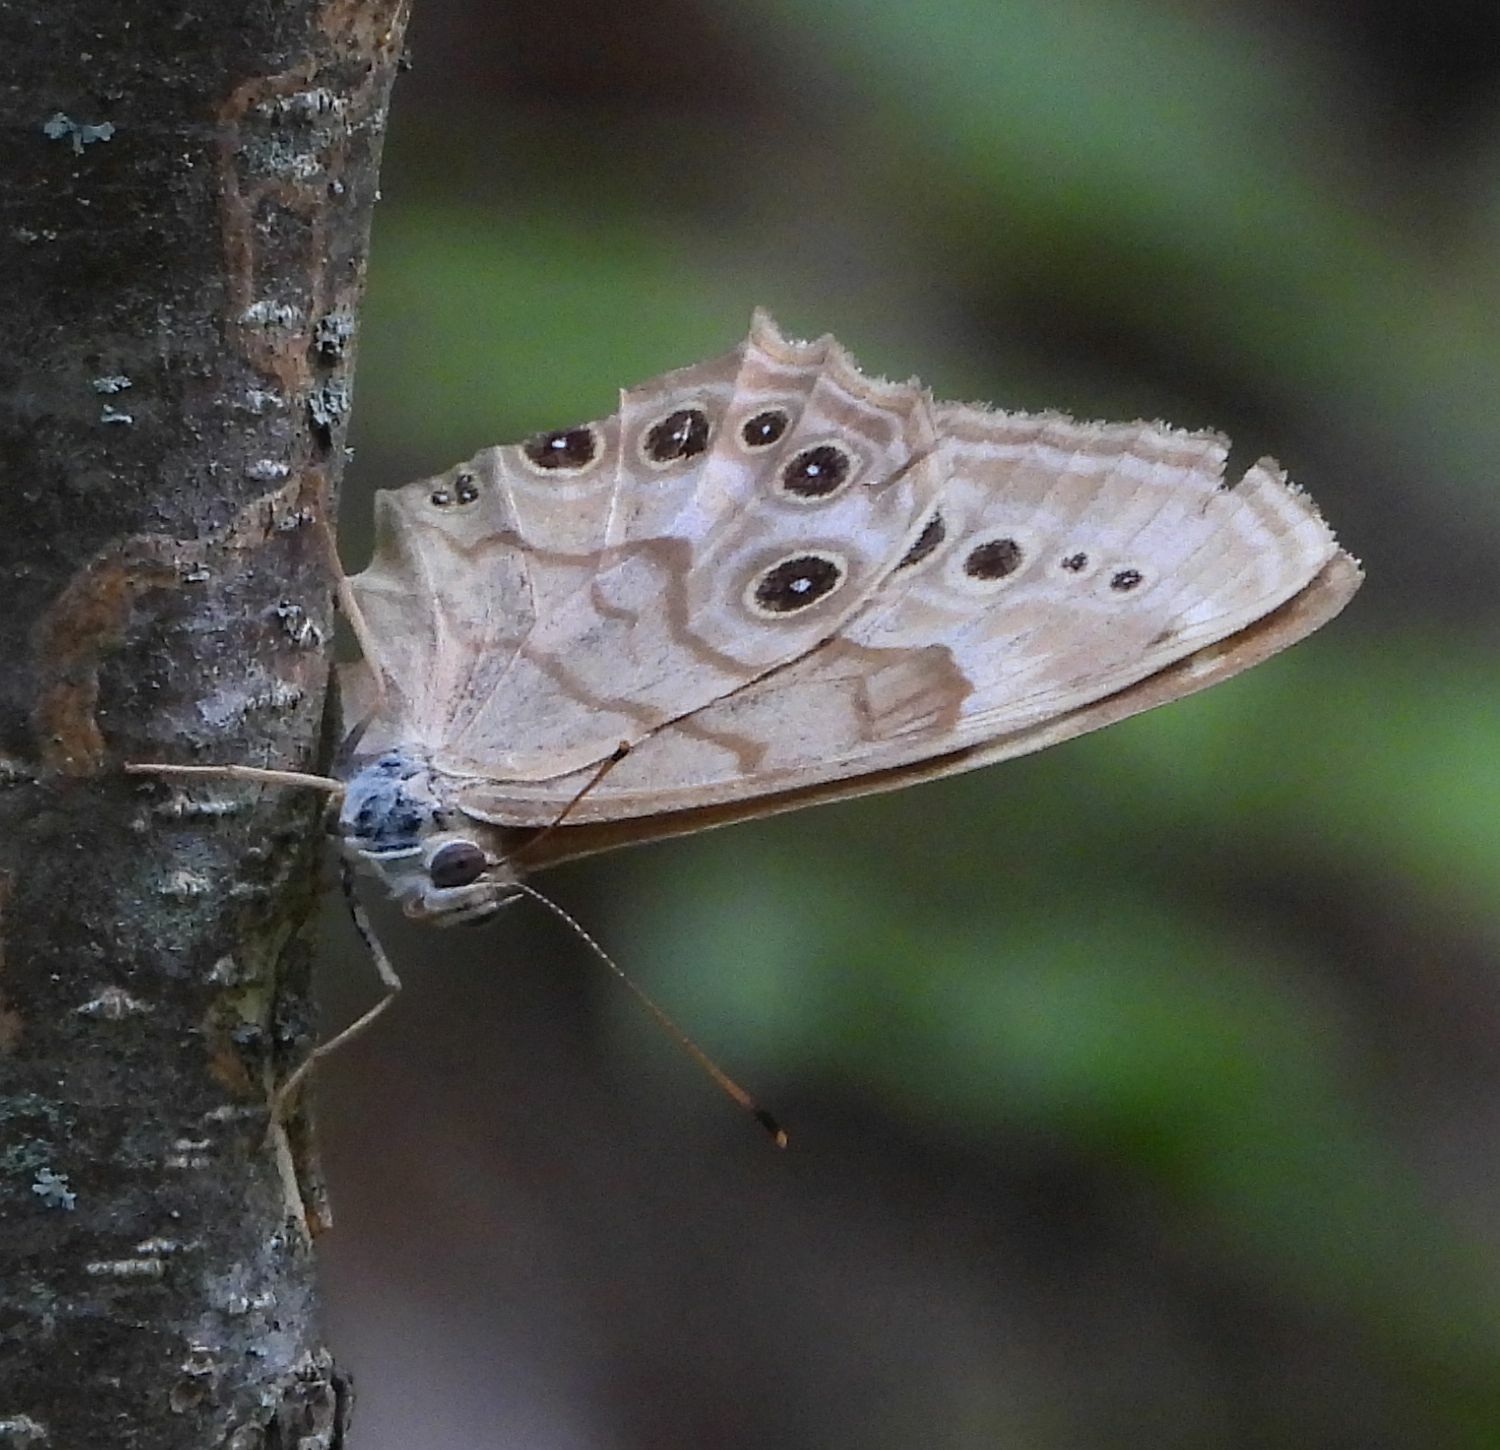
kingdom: Animalia
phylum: Arthropoda
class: Insecta
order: Lepidoptera
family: Nymphalidae
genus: Lethe
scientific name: Lethe anthedon
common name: Northern pearly-eye
